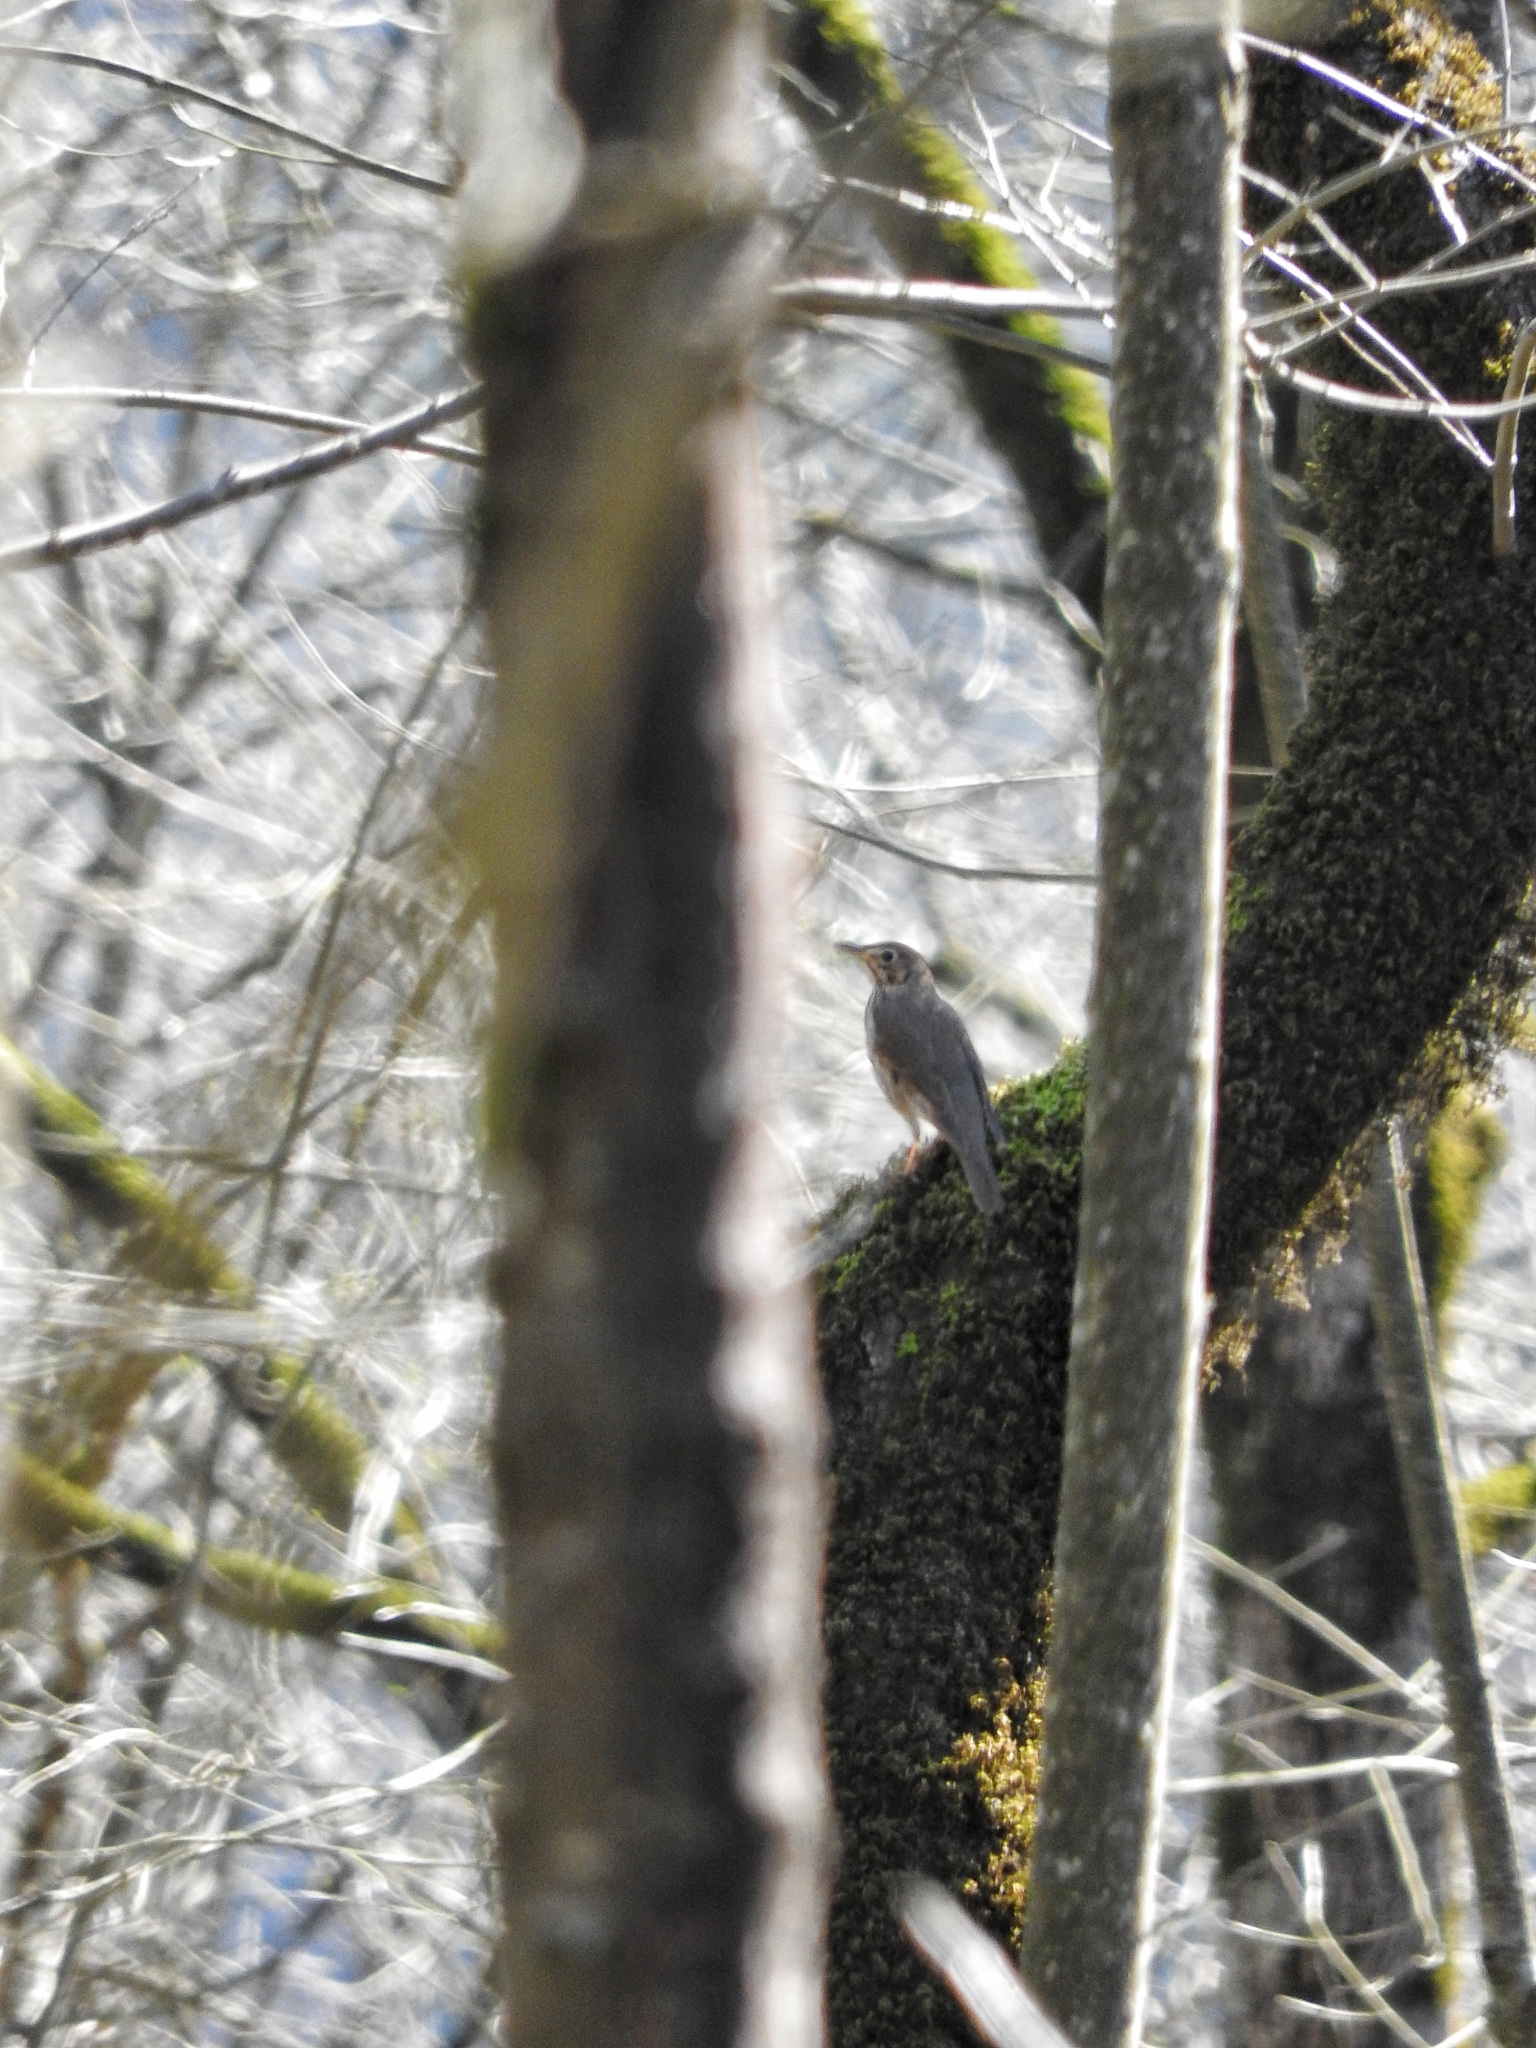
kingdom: Animalia
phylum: Chordata
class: Aves
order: Passeriformes
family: Turdidae
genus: Turdus
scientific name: Turdus philomelos
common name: Song thrush
